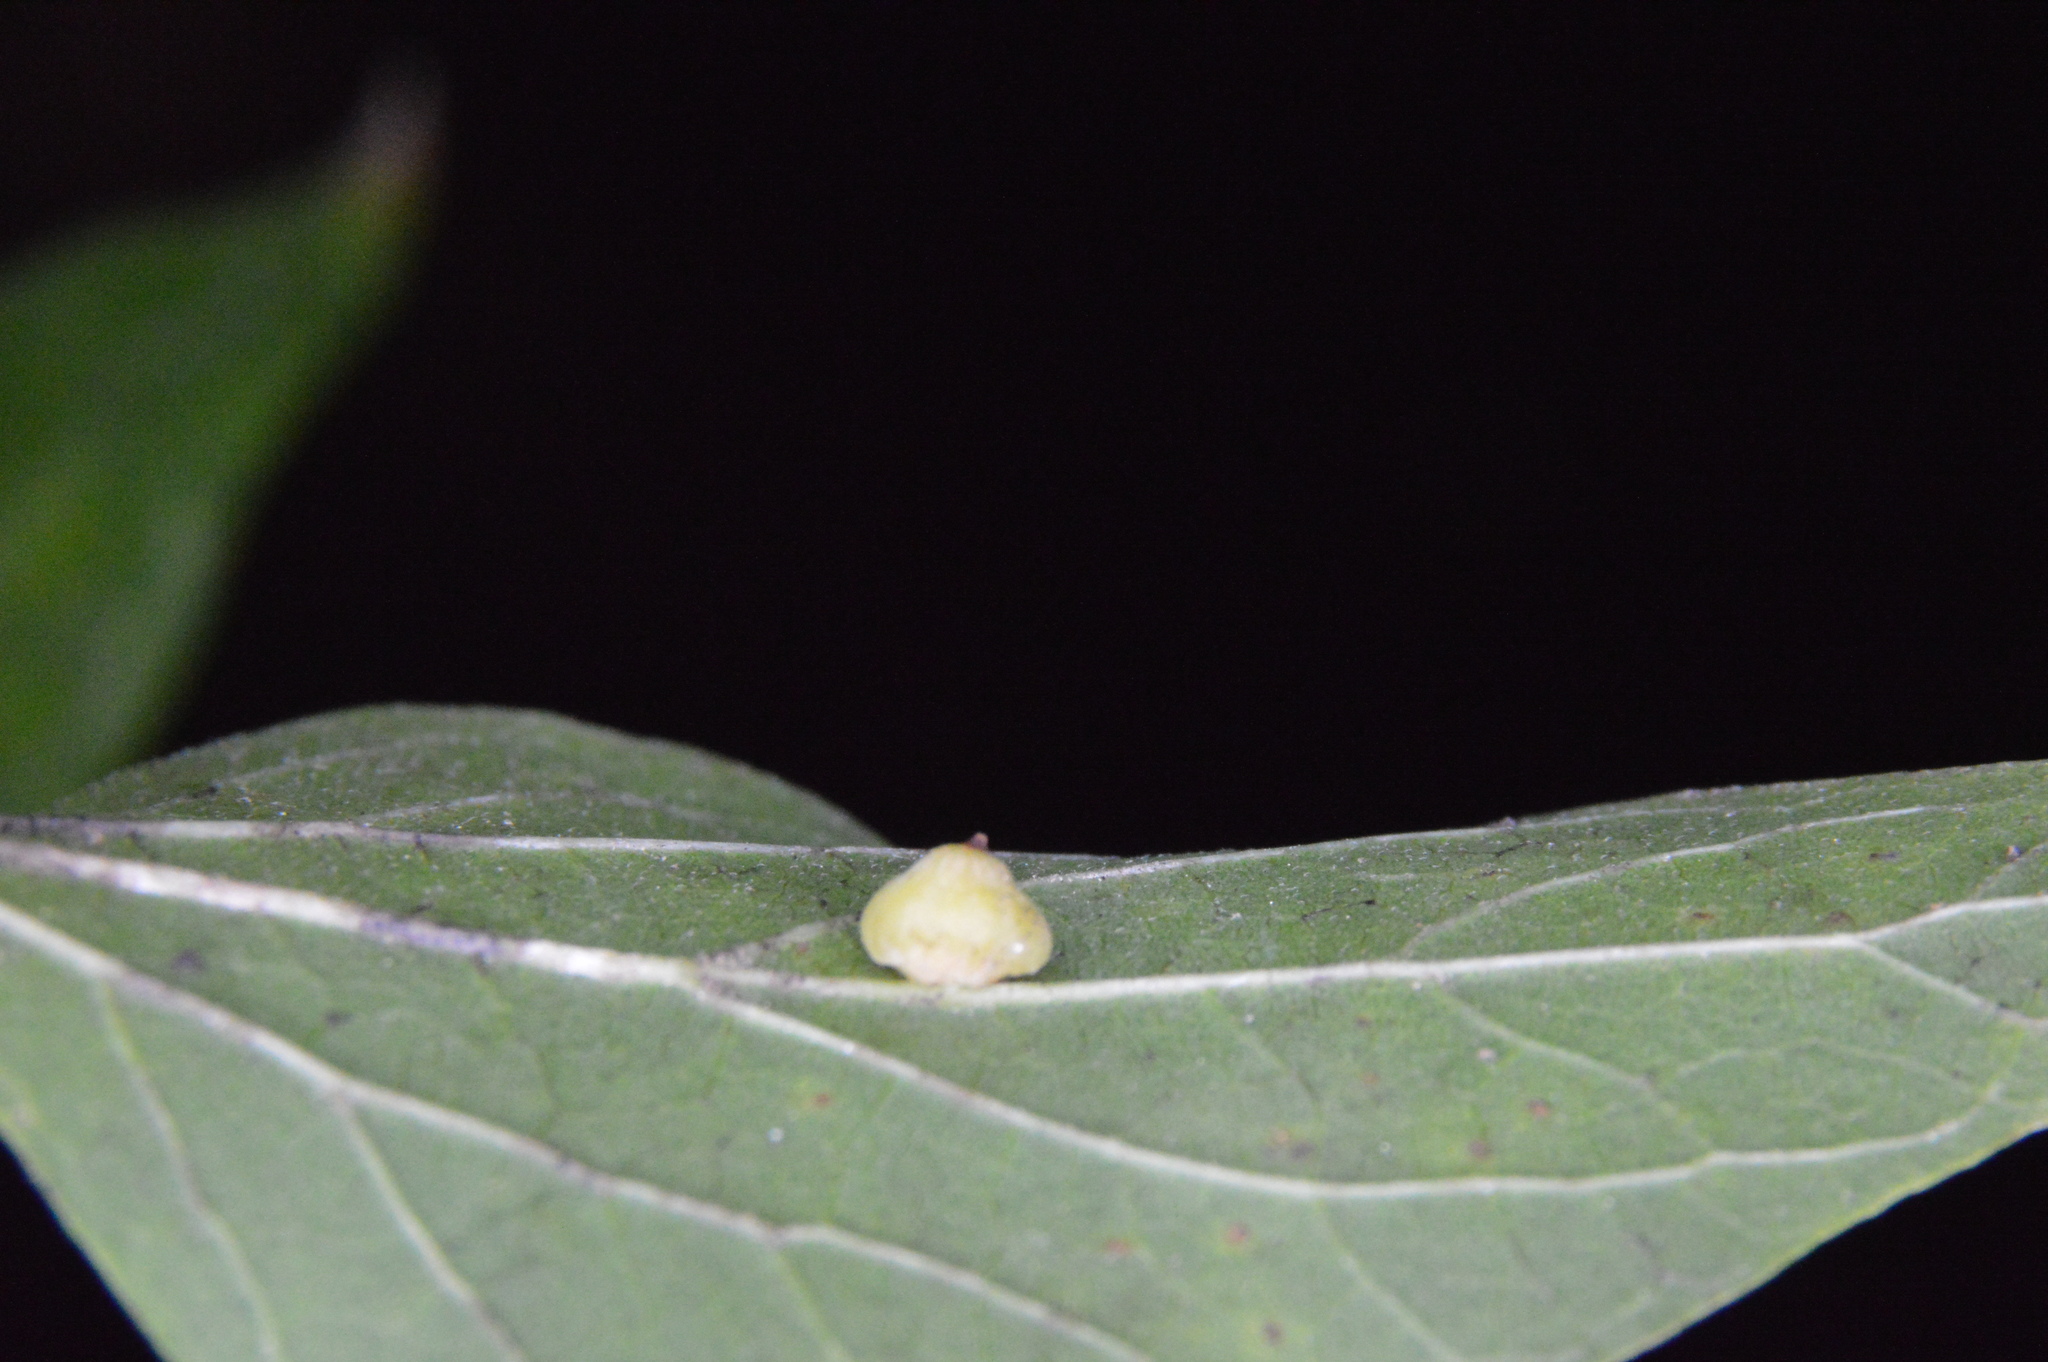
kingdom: Animalia
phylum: Arthropoda
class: Insecta
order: Diptera
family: Cecidomyiidae
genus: Celticecis
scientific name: Celticecis globosa
